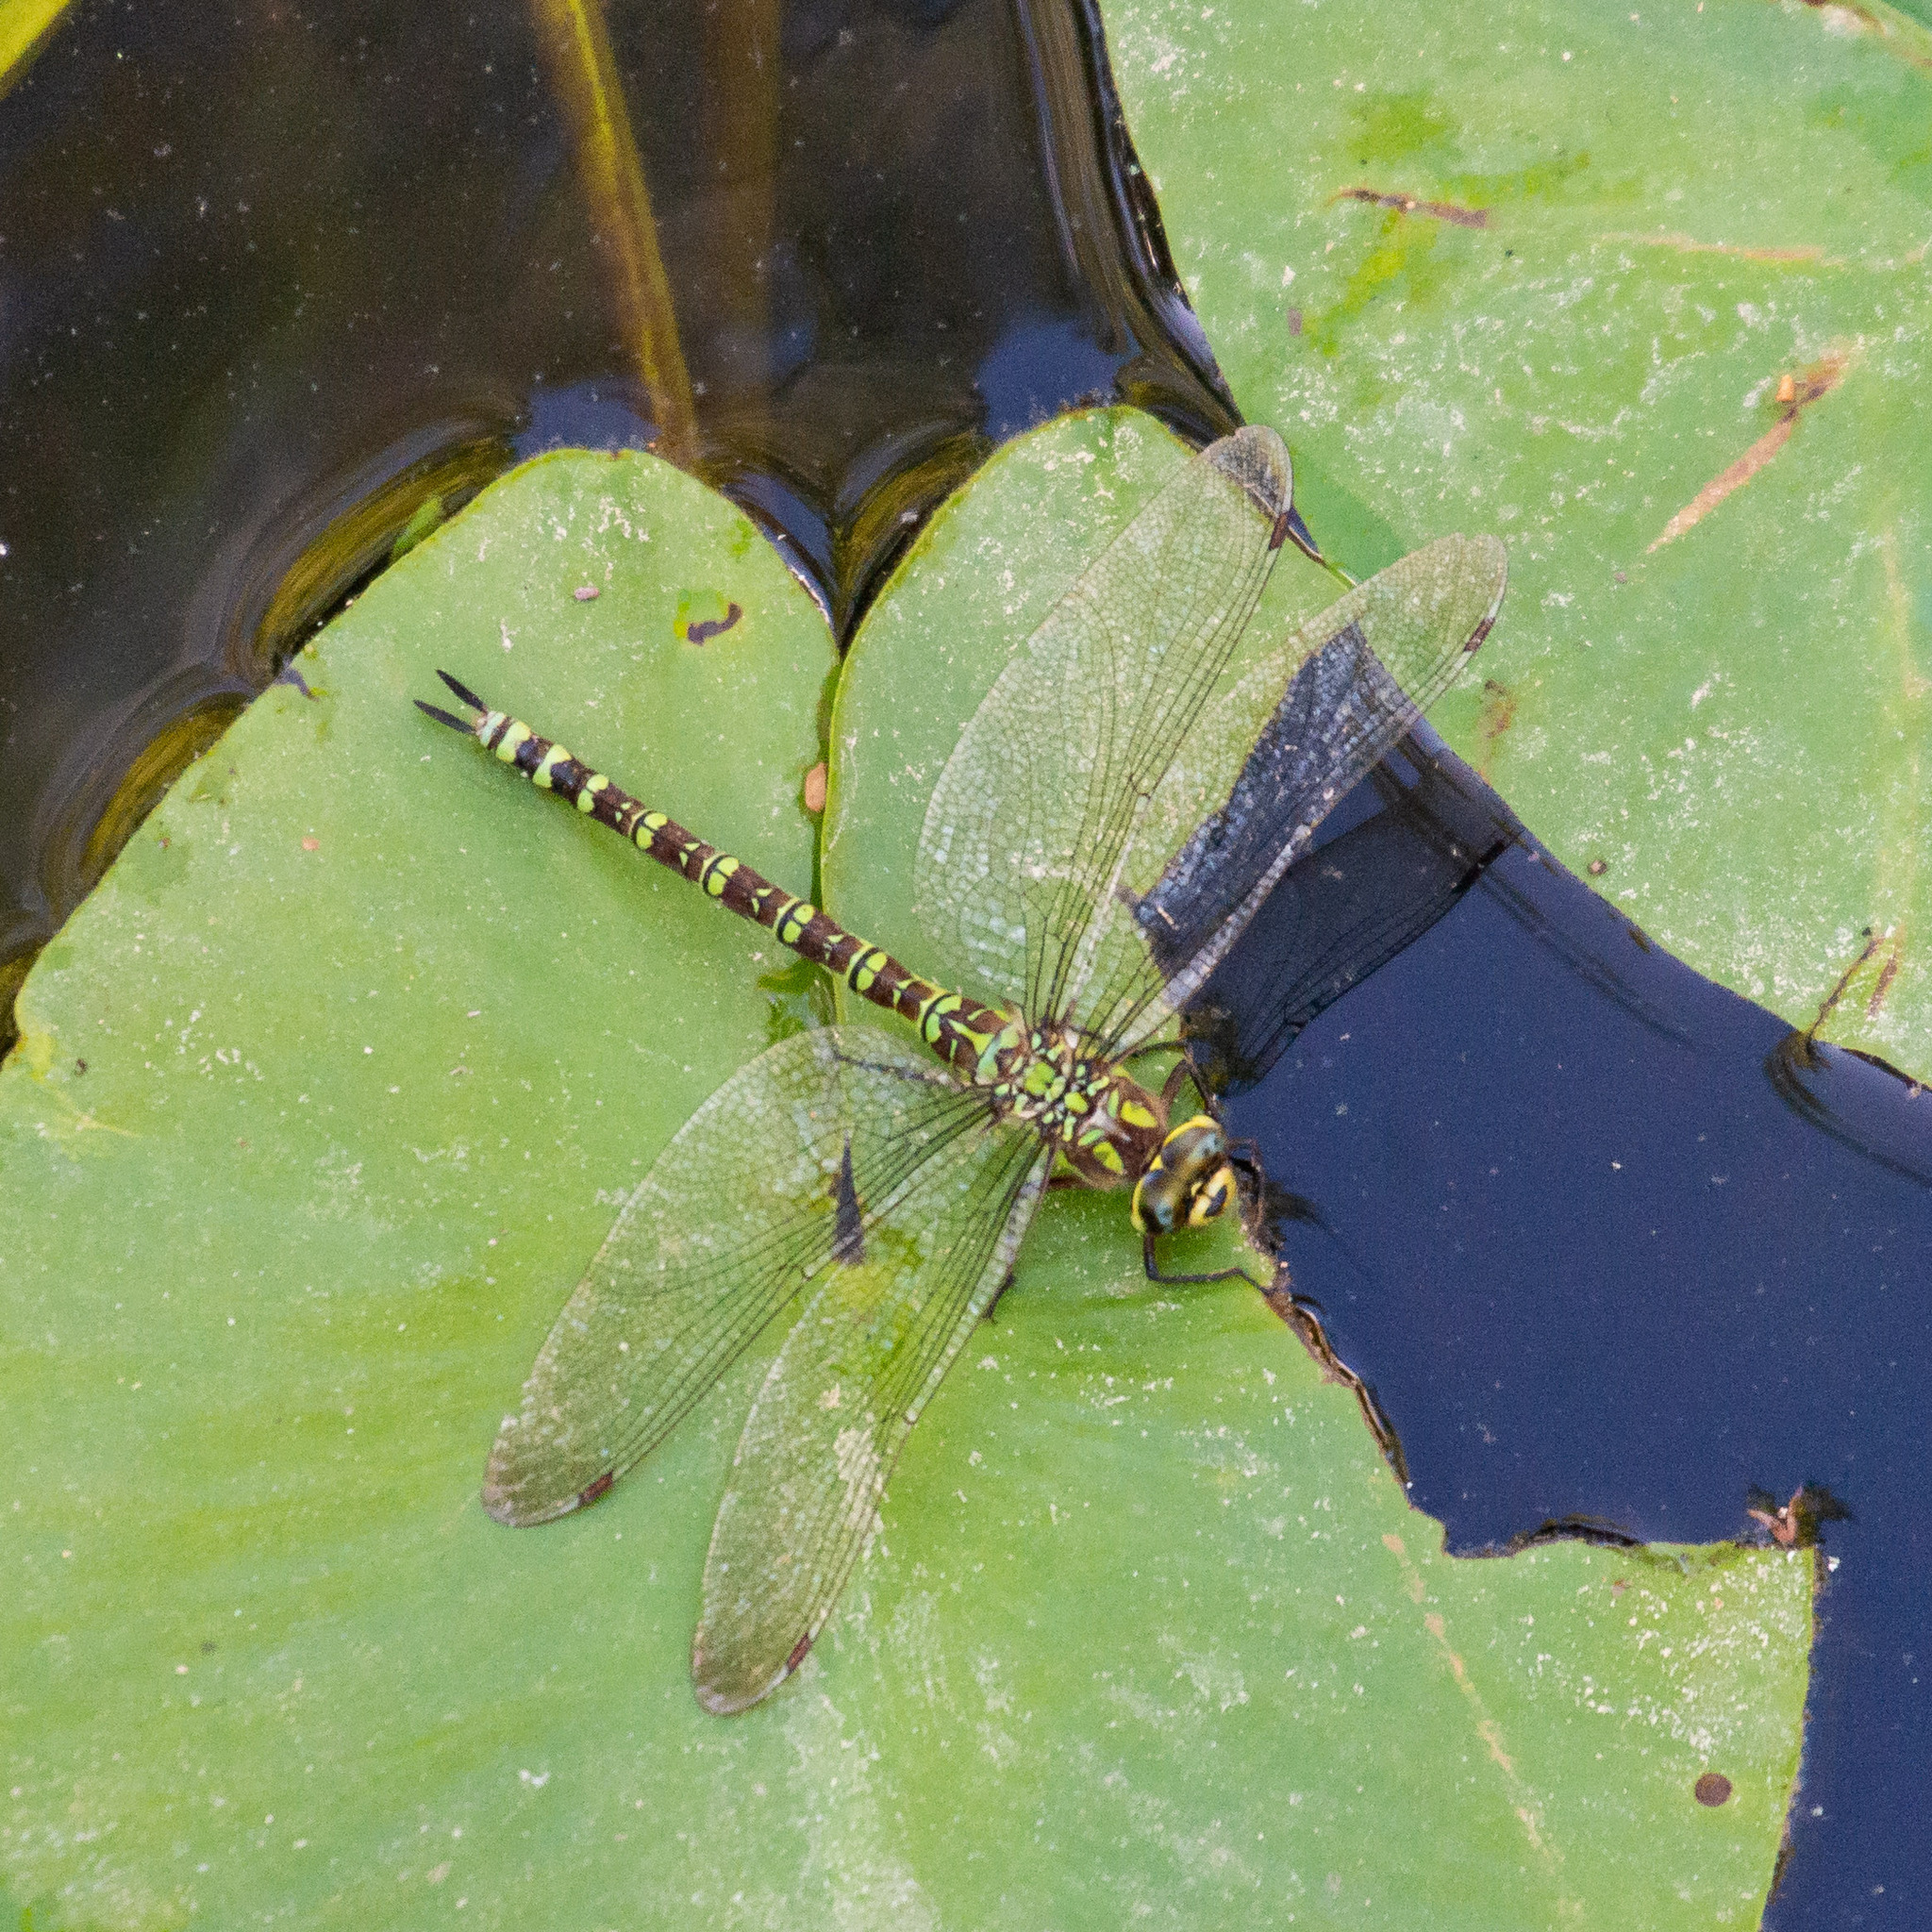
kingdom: Animalia
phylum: Arthropoda
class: Insecta
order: Odonata
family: Aeshnidae
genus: Aeshna
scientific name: Aeshna cyanea
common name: Southern hawker
